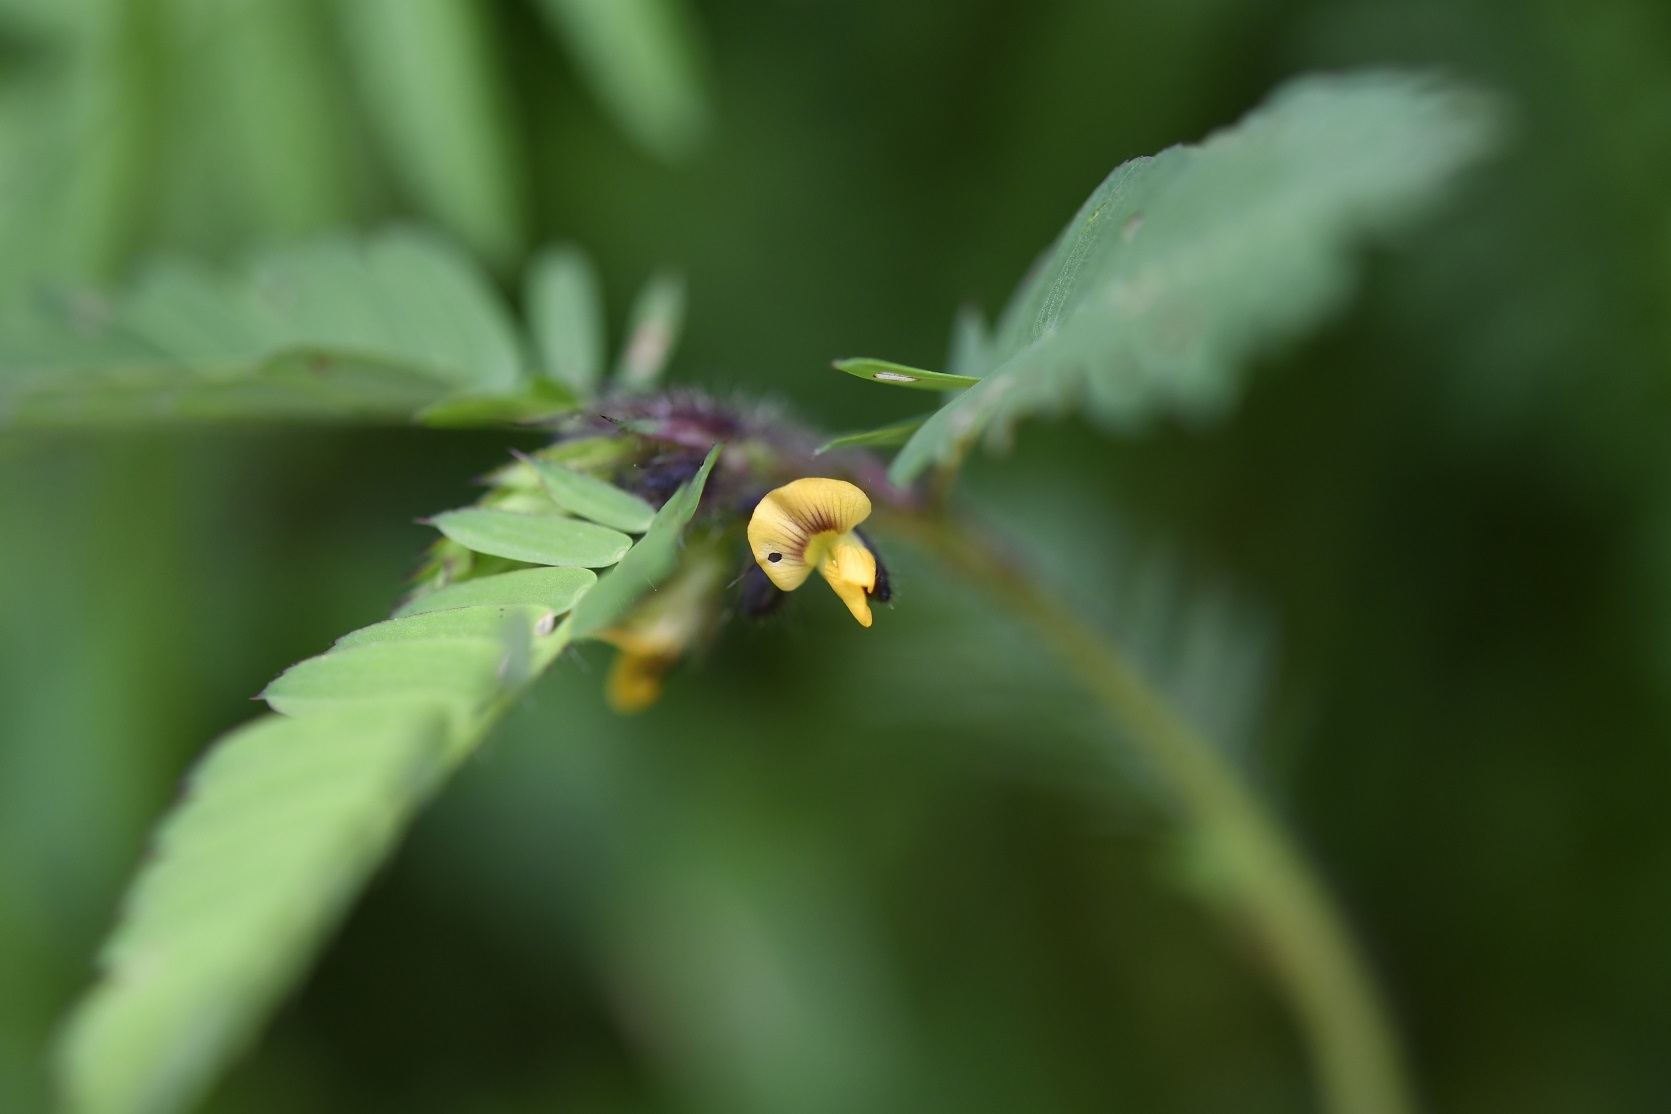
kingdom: Plantae
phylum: Tracheophyta
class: Magnoliopsida
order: Fabales
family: Fabaceae
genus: Aeschynomene
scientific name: Aeschynomene villosa
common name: Hairy-jointvetch
